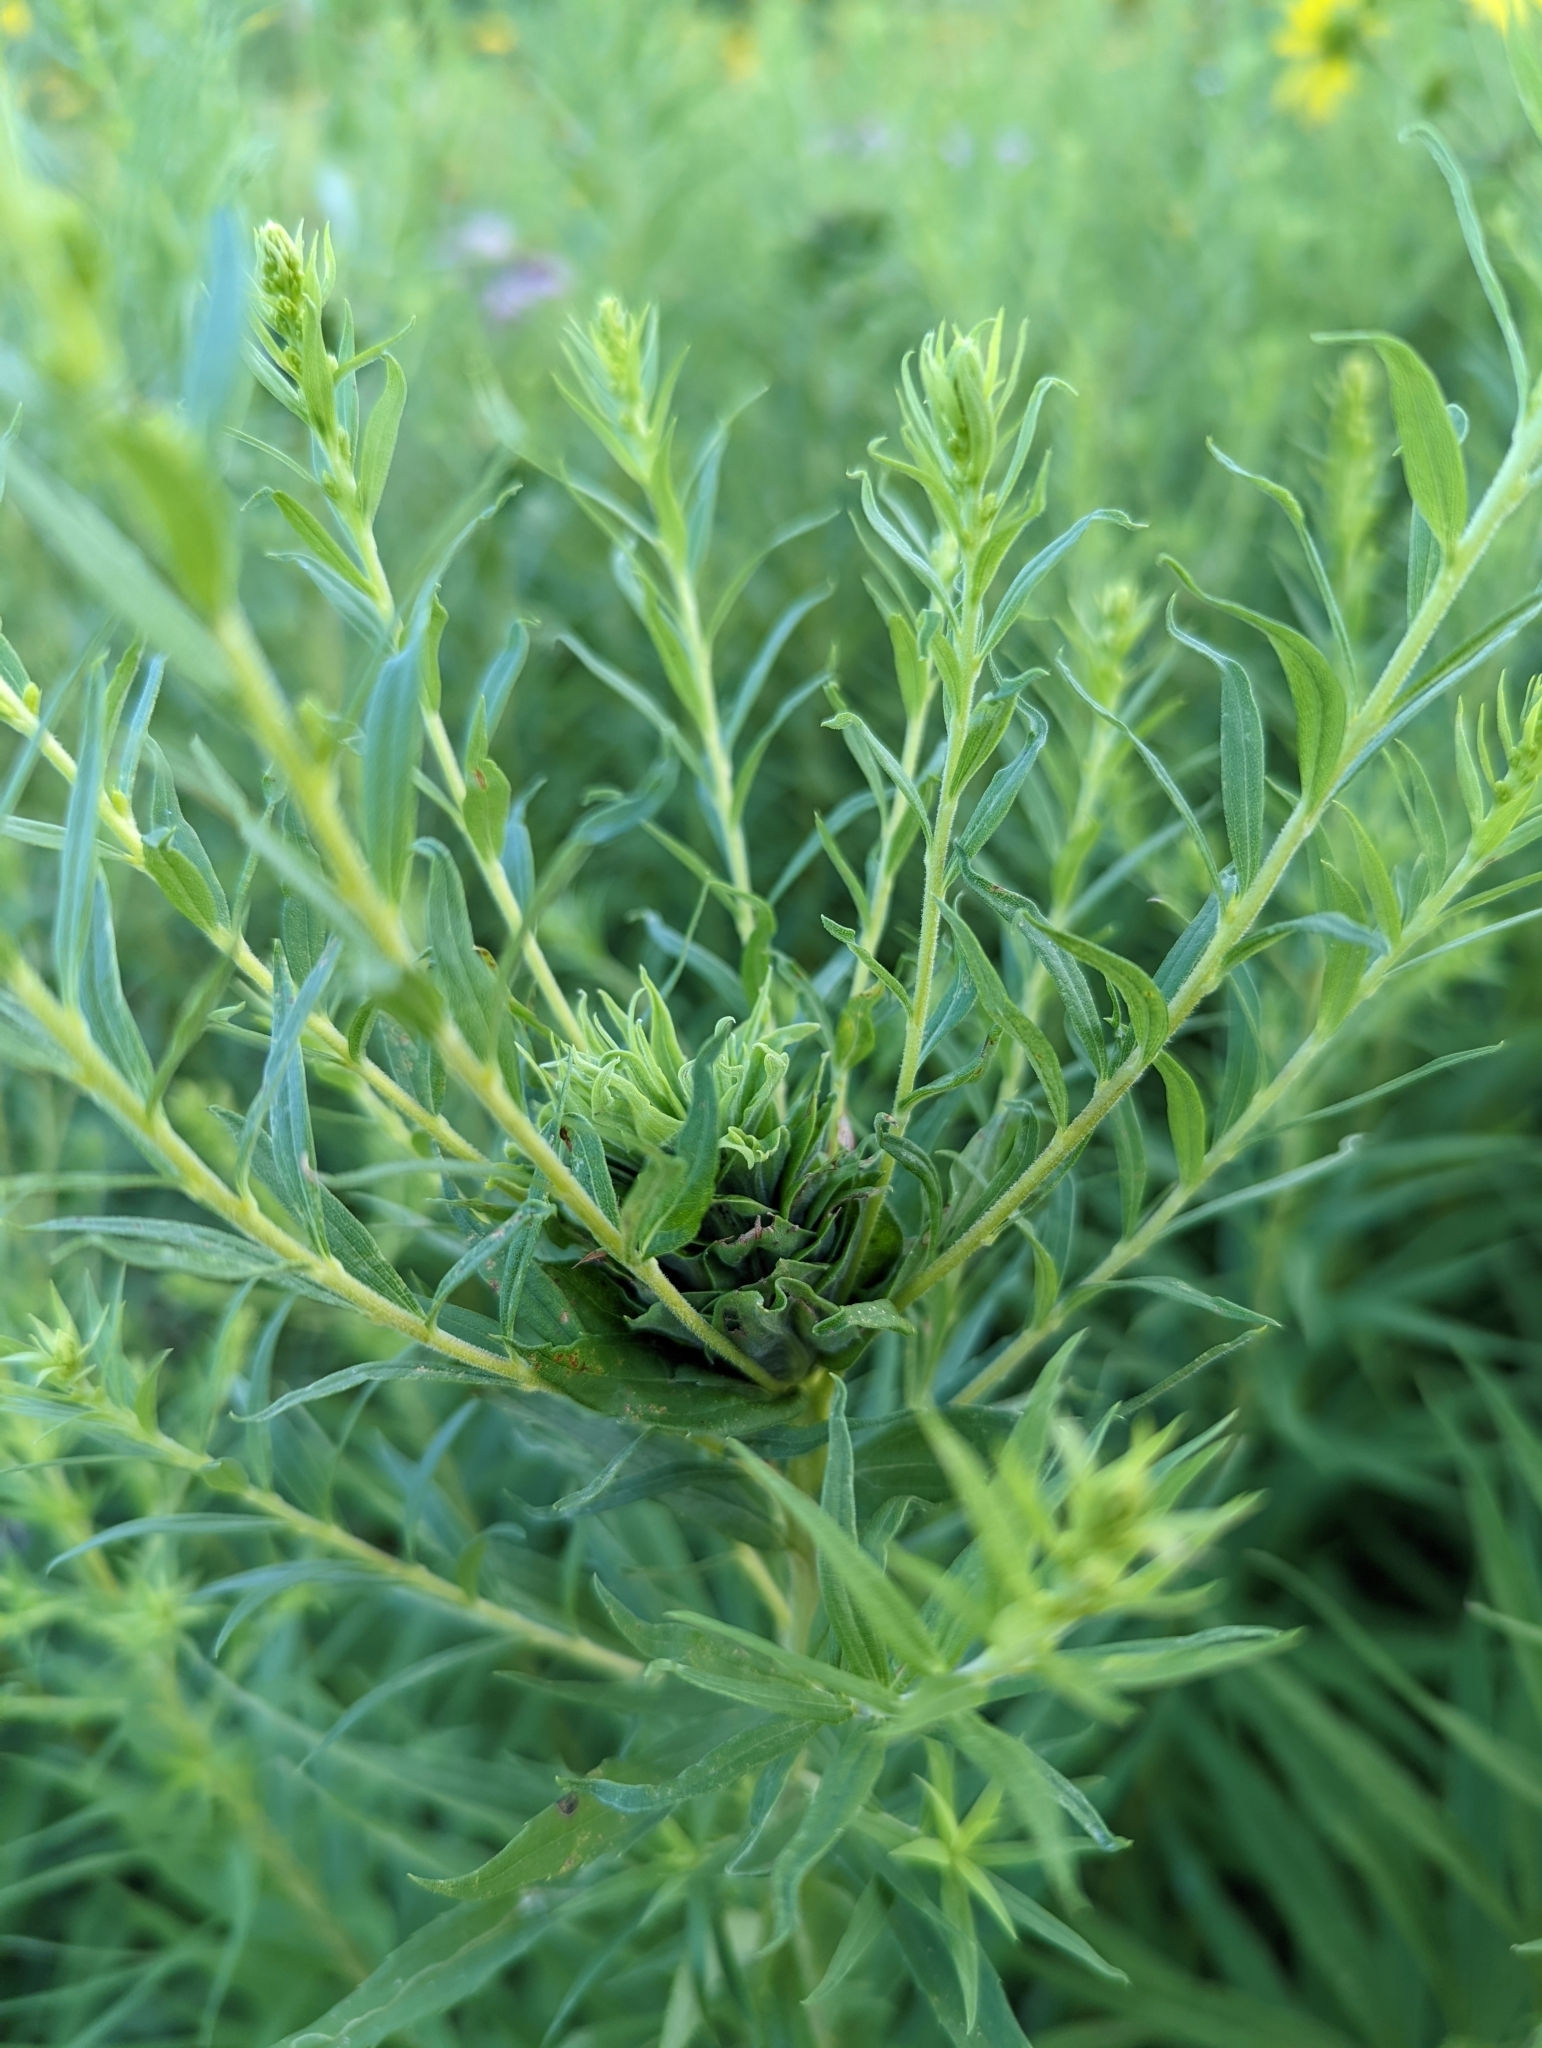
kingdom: Animalia
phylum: Arthropoda
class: Insecta
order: Diptera
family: Cecidomyiidae
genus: Rhopalomyia
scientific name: Rhopalomyia solidaginis
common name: Goldenrod bunch gall midge
